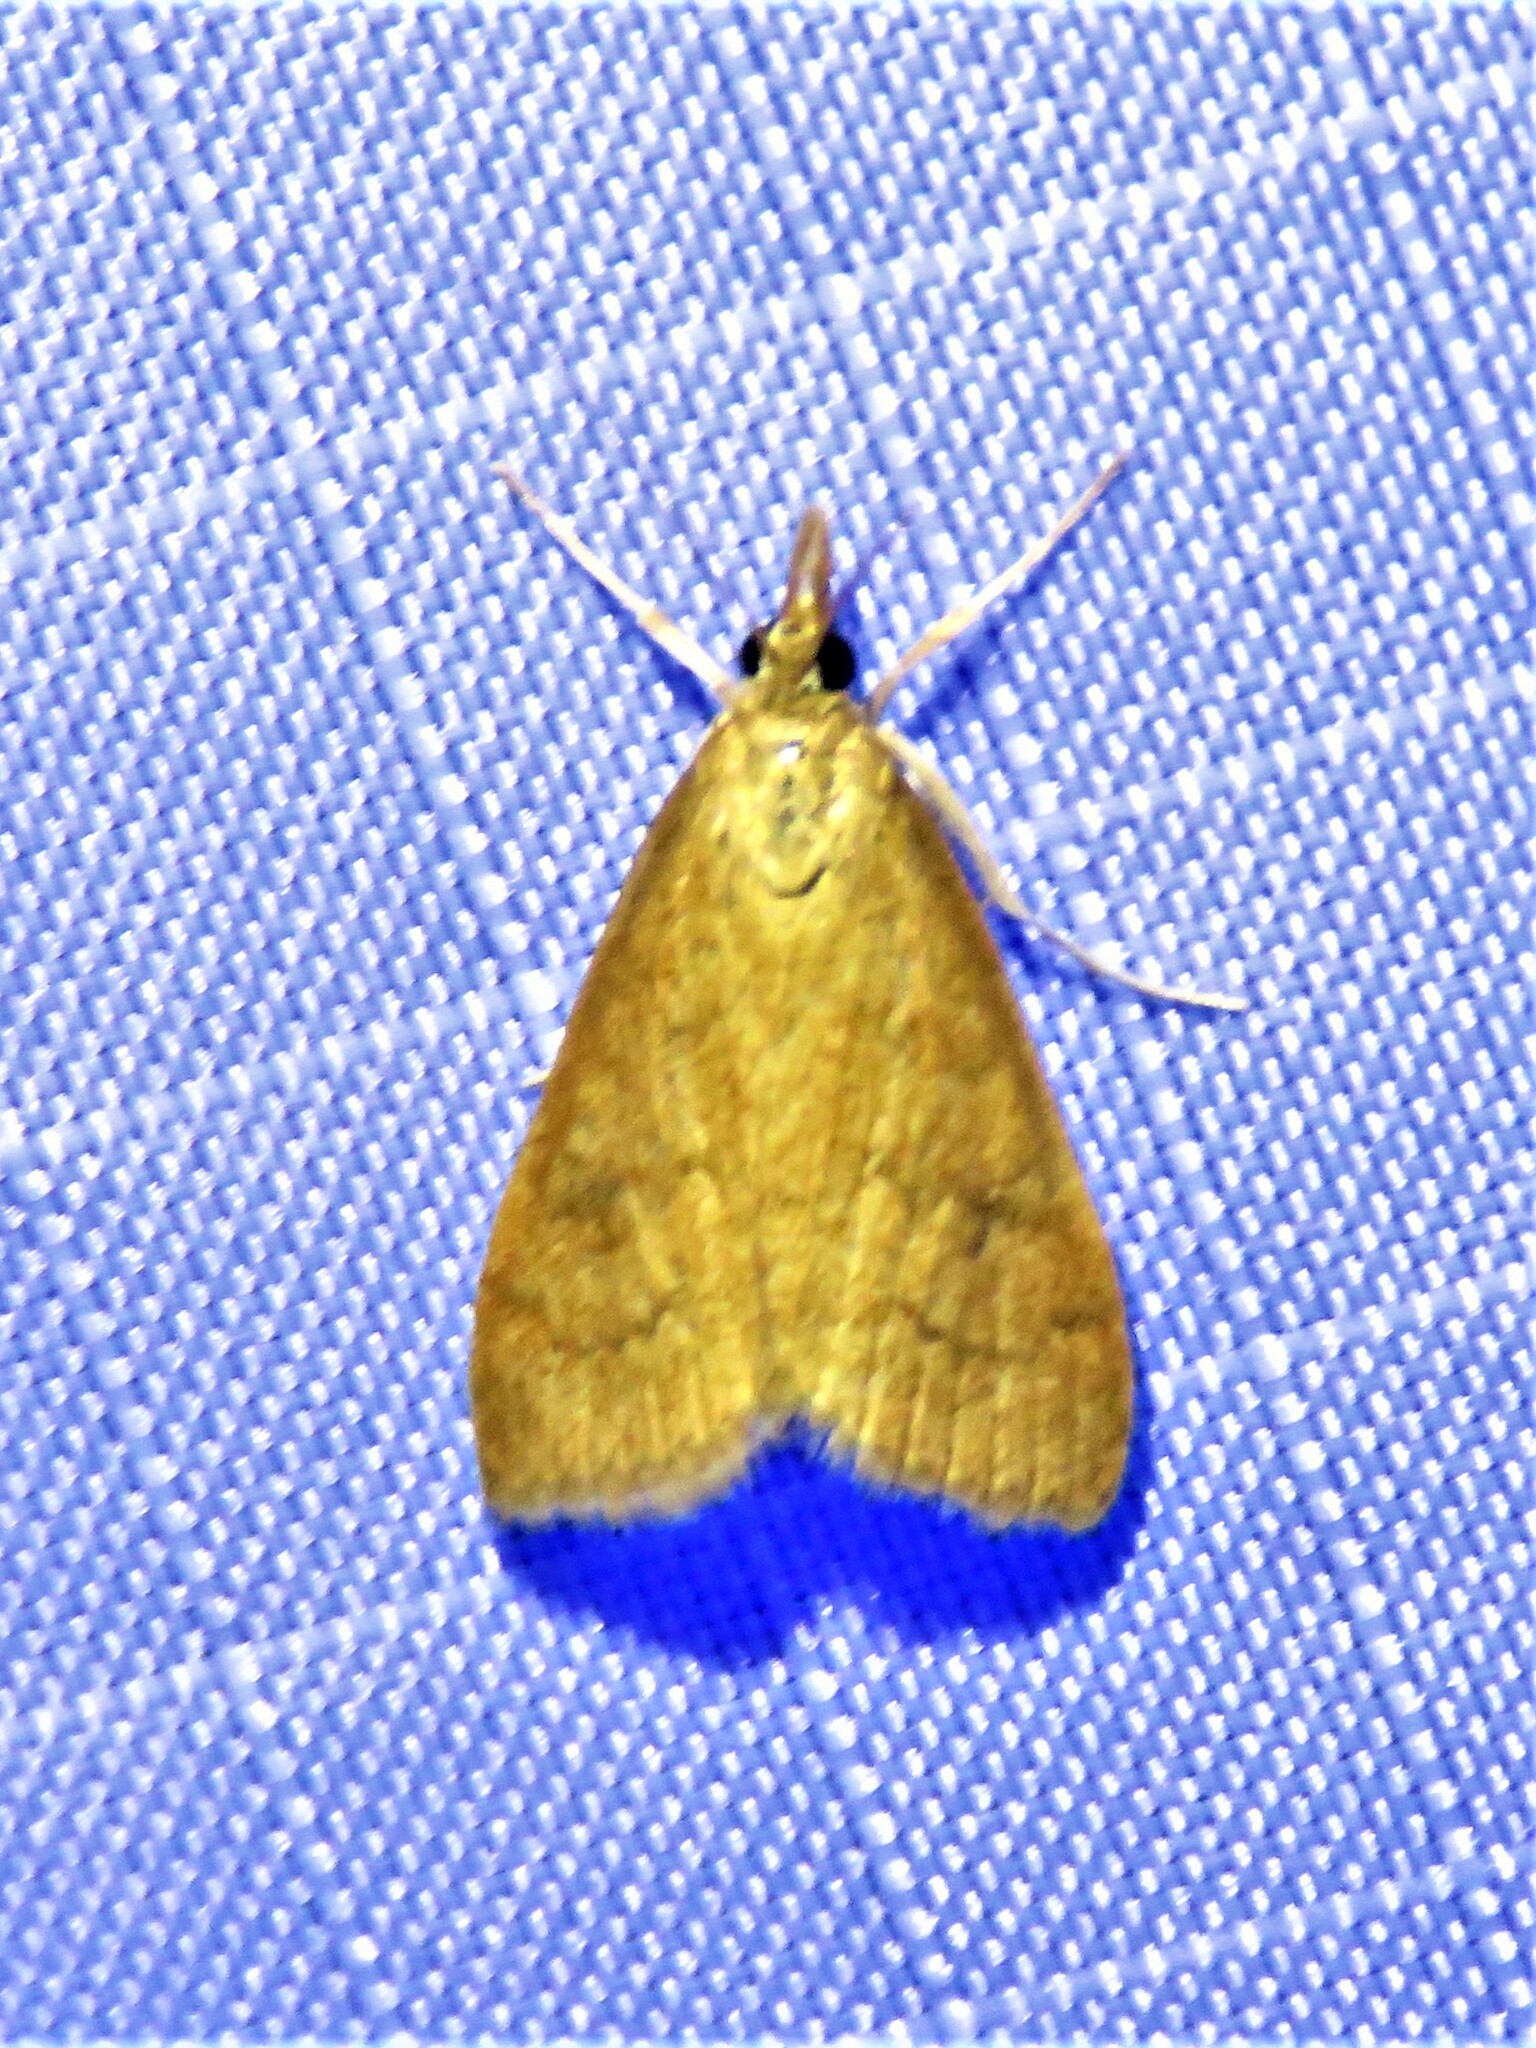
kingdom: Animalia
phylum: Arthropoda
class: Insecta
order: Lepidoptera
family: Crambidae
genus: Udea
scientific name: Udea rubigalis
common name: Celery leaftier moth
